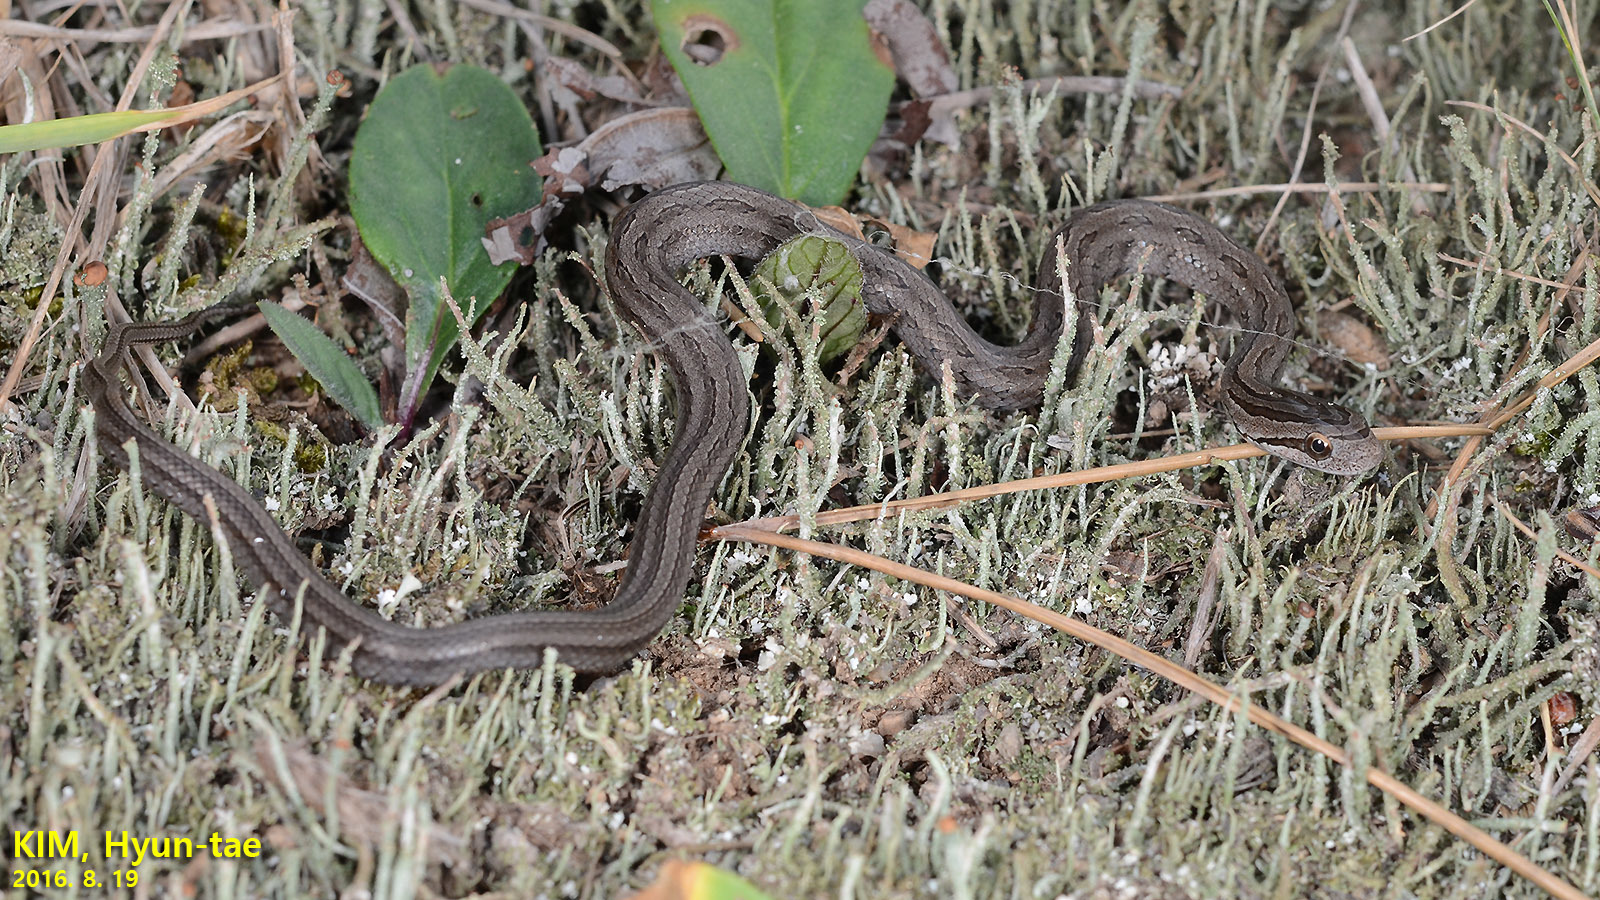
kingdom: Animalia
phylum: Chordata
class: Squamata
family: Colubridae
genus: Oocatochus
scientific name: Oocatochus rufodorsatus
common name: Frog-eating rat snake
